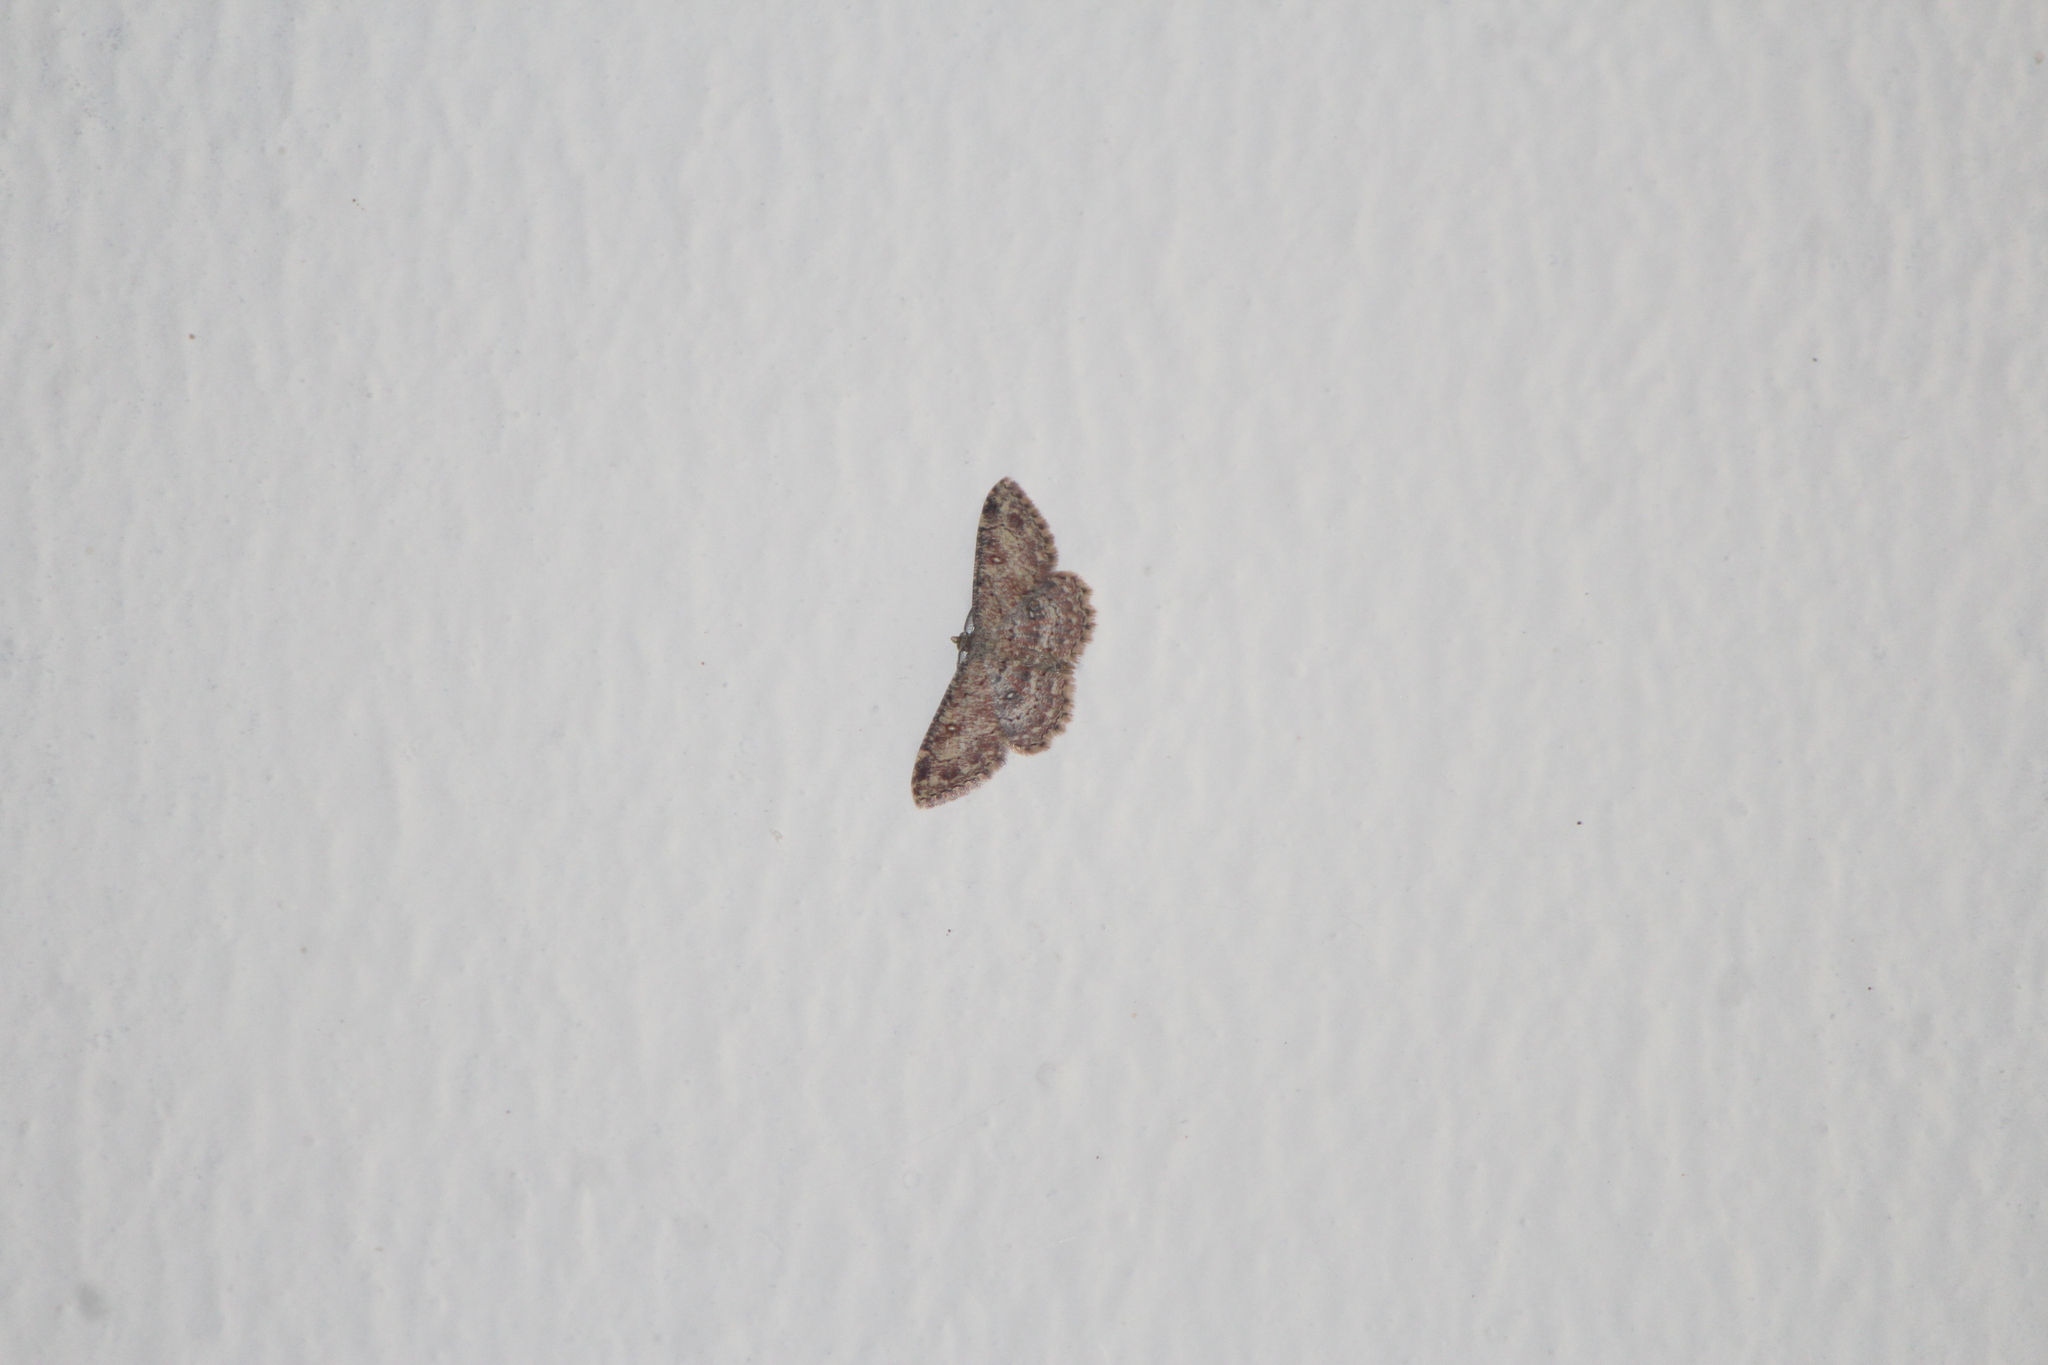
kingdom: Animalia
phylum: Arthropoda
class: Insecta
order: Lepidoptera
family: Geometridae
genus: Cyclophora
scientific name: Cyclophora nanaria
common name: Cankerworm
